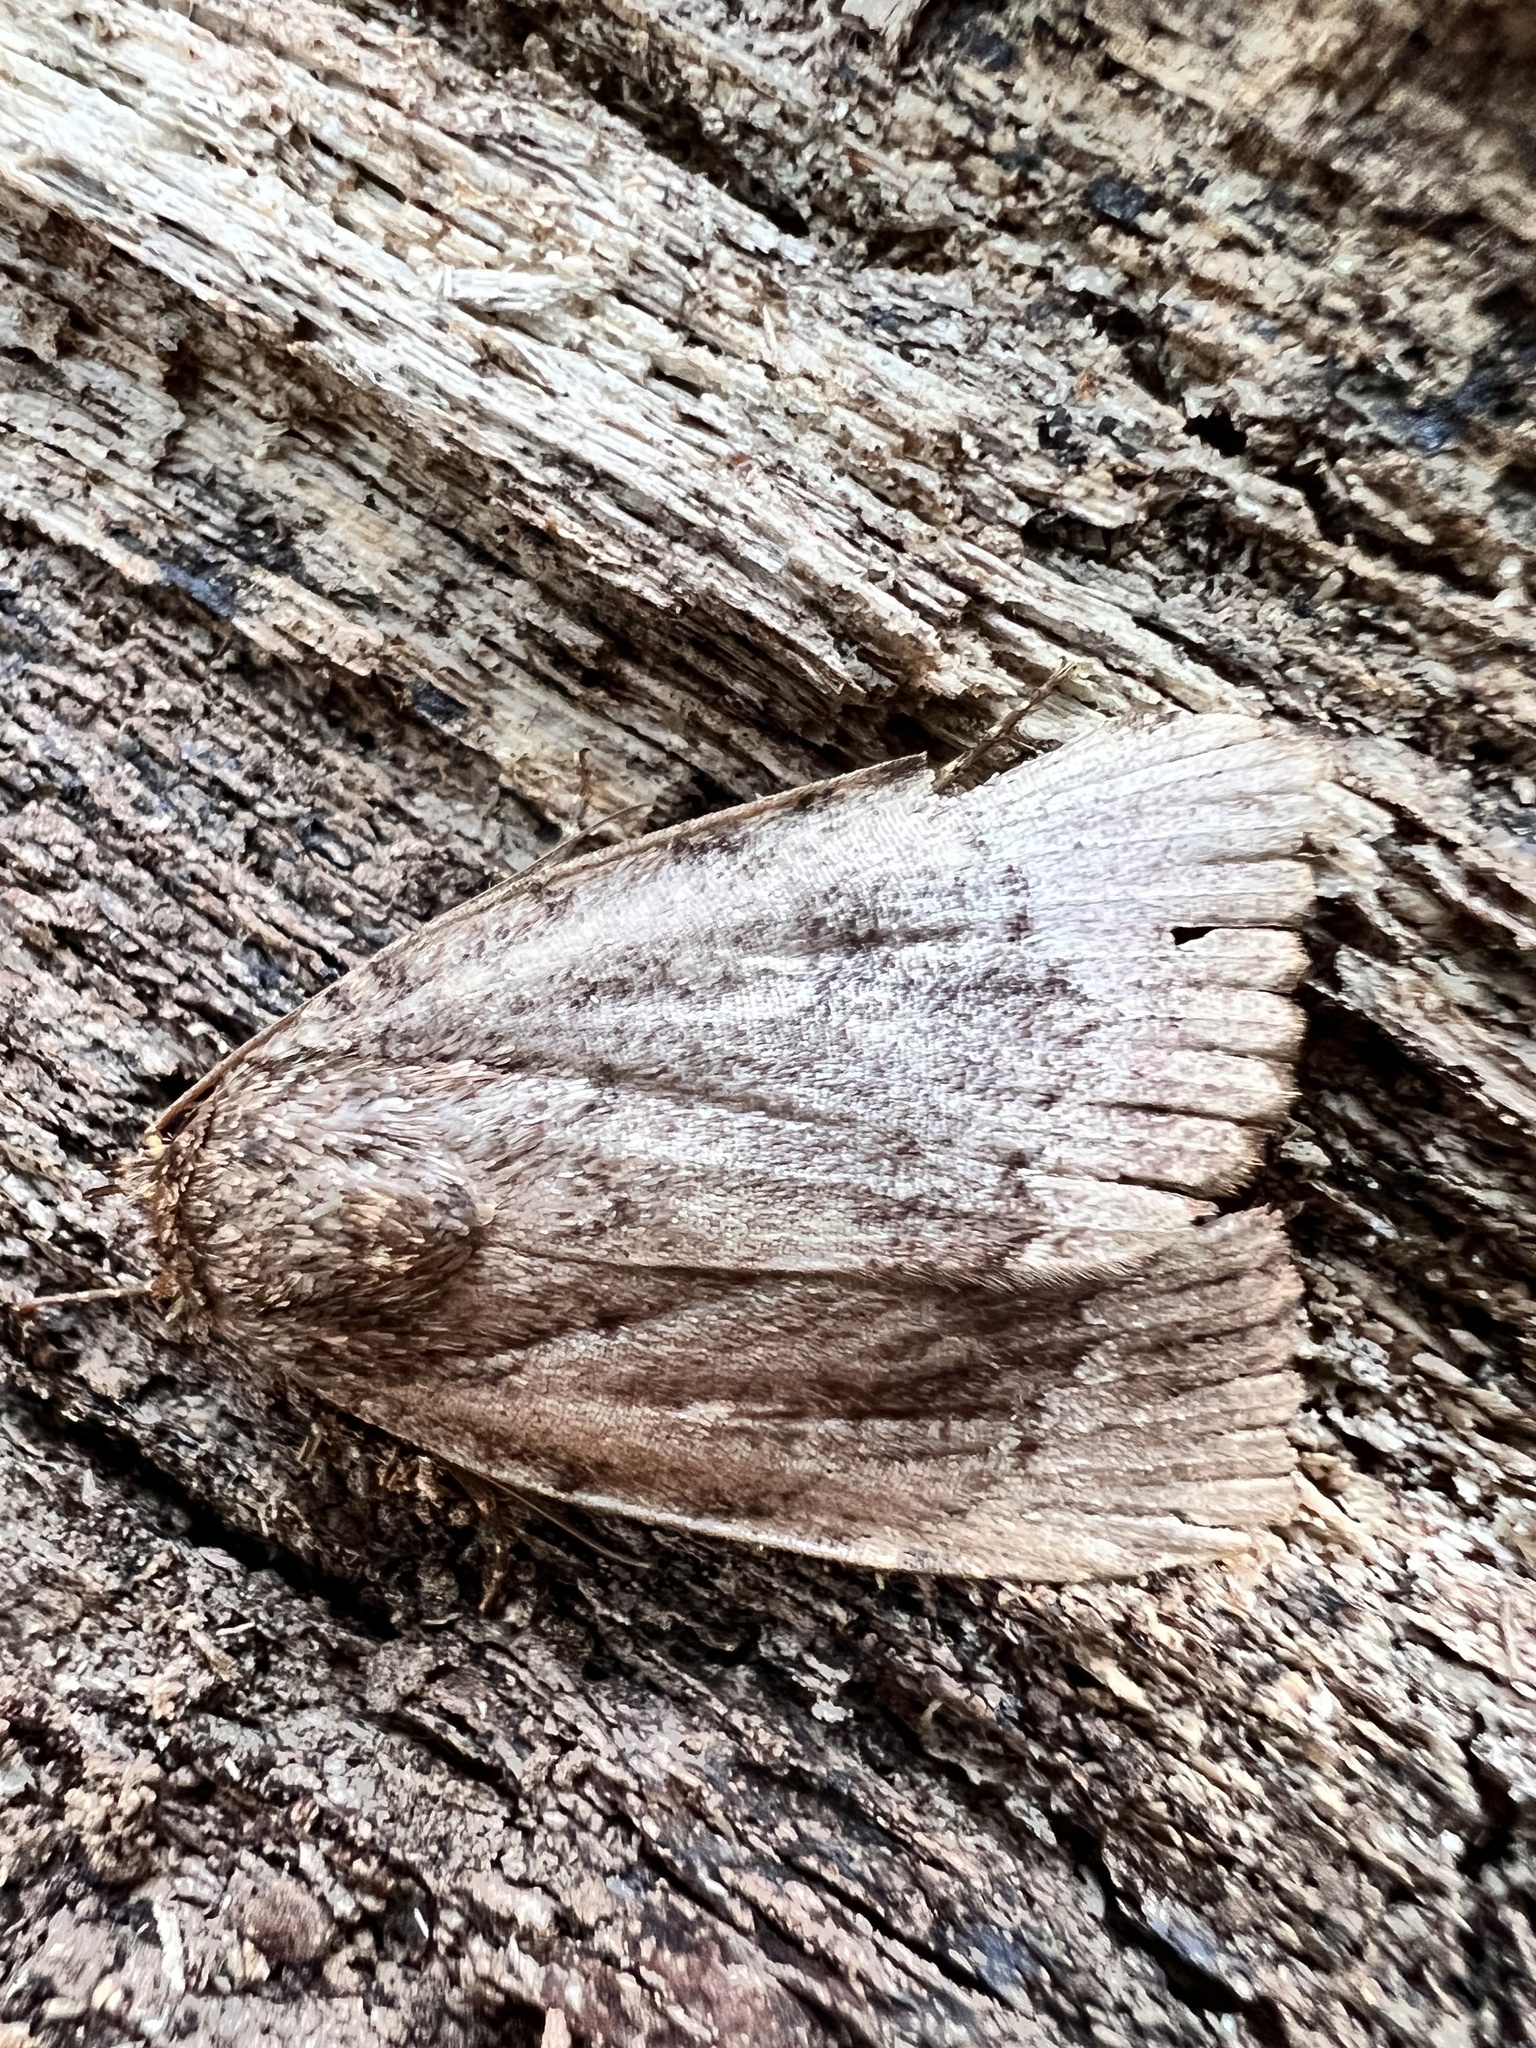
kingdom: Animalia
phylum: Arthropoda
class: Insecta
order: Lepidoptera
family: Noctuidae
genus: Amphipyra
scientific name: Amphipyra pyramidoides
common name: American copper underwing
